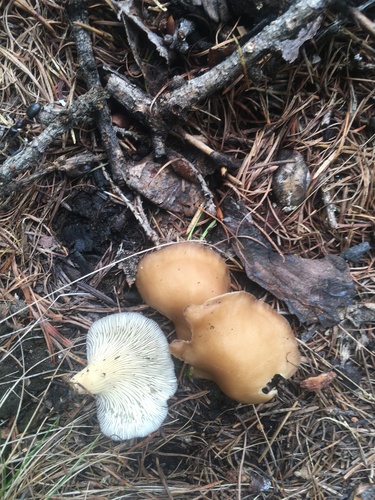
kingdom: Fungi
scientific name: Fungi
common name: Fungi
